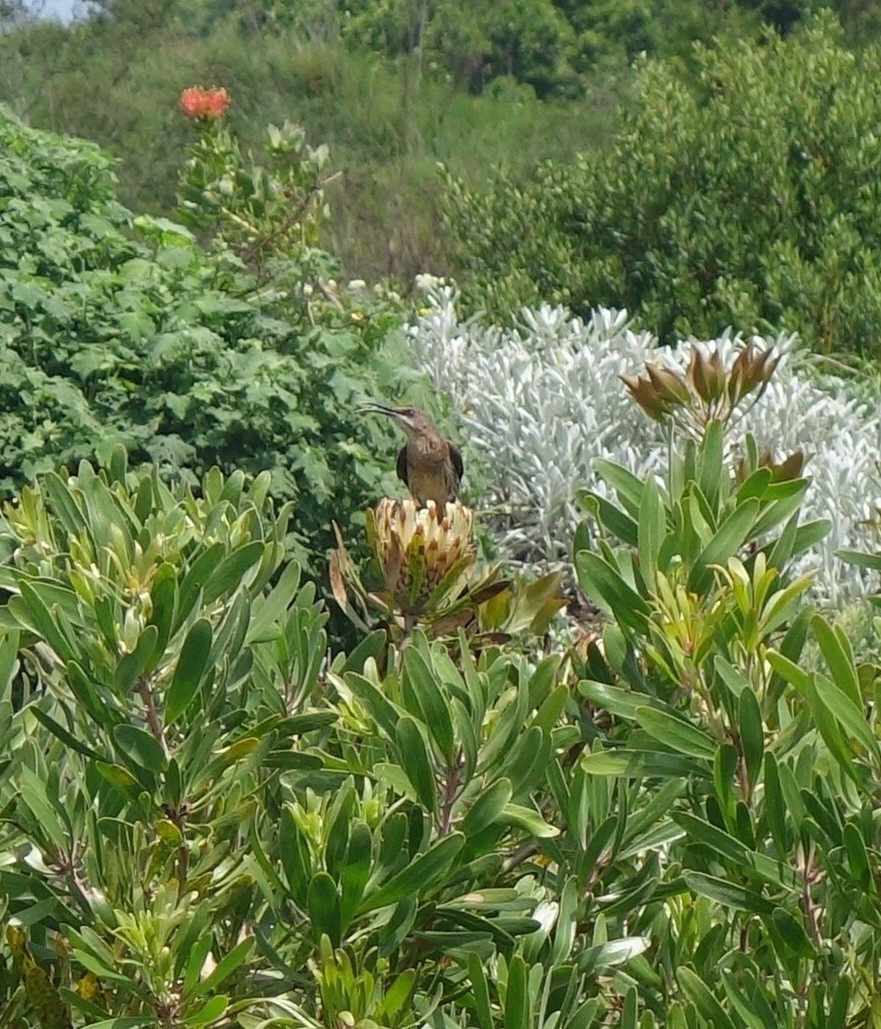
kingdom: Animalia
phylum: Chordata
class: Aves
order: Passeriformes
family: Promeropidae
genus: Promerops
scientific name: Promerops cafer
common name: Cape sugarbird
